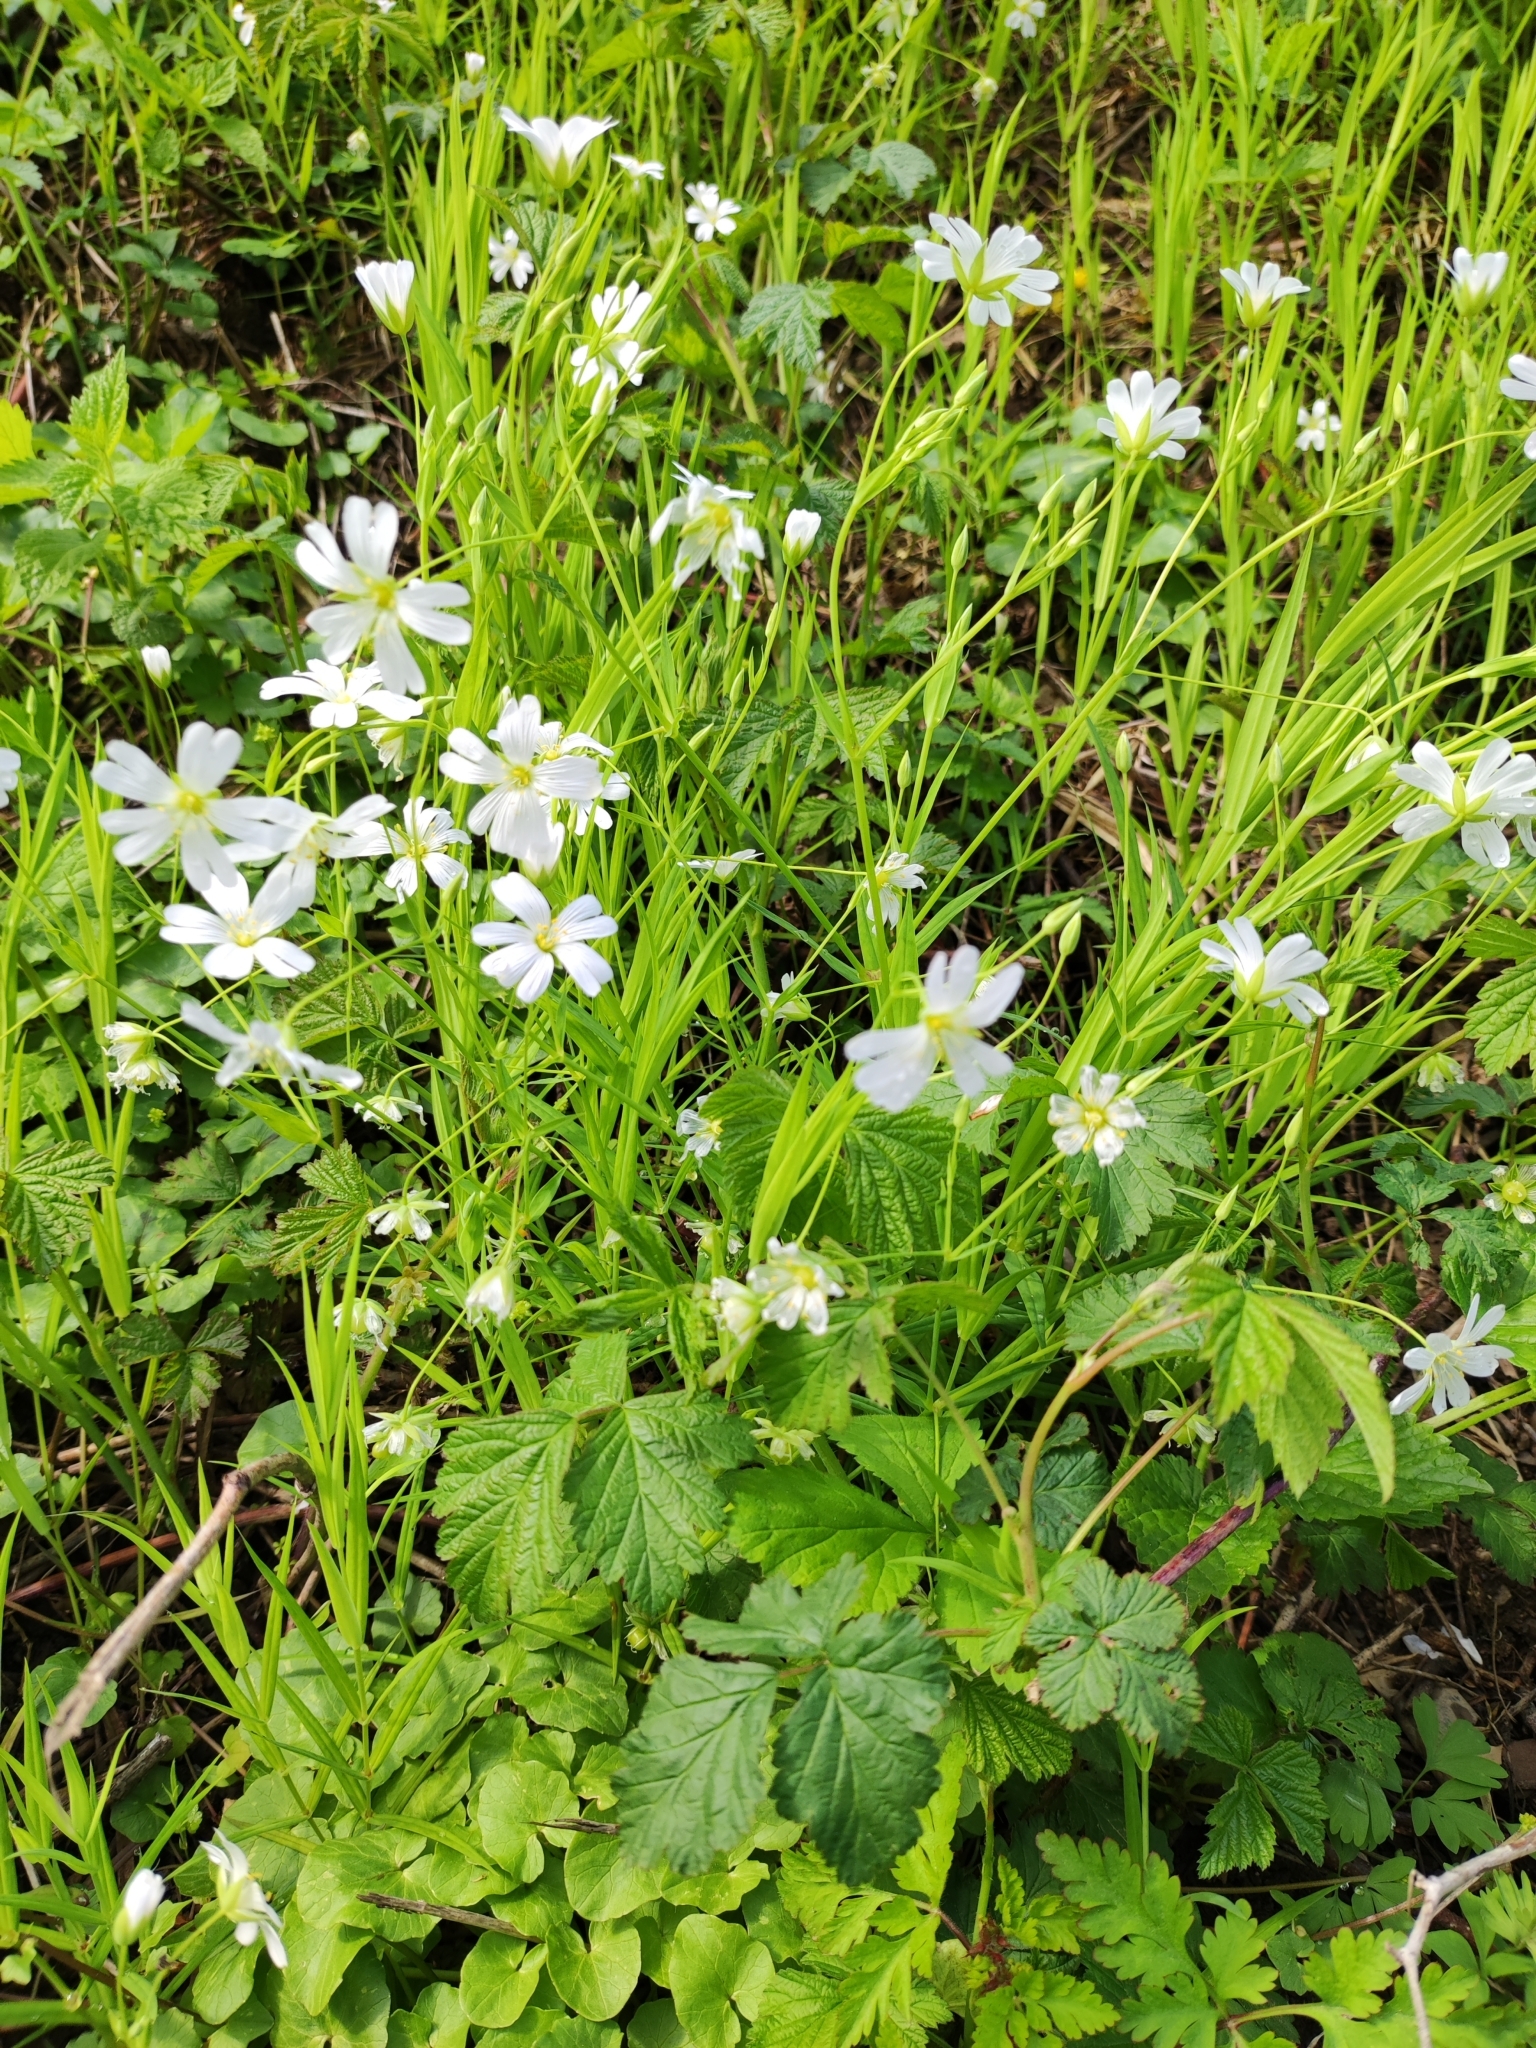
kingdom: Plantae
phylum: Tracheophyta
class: Magnoliopsida
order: Caryophyllales
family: Caryophyllaceae
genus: Rabelera
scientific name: Rabelera holostea
